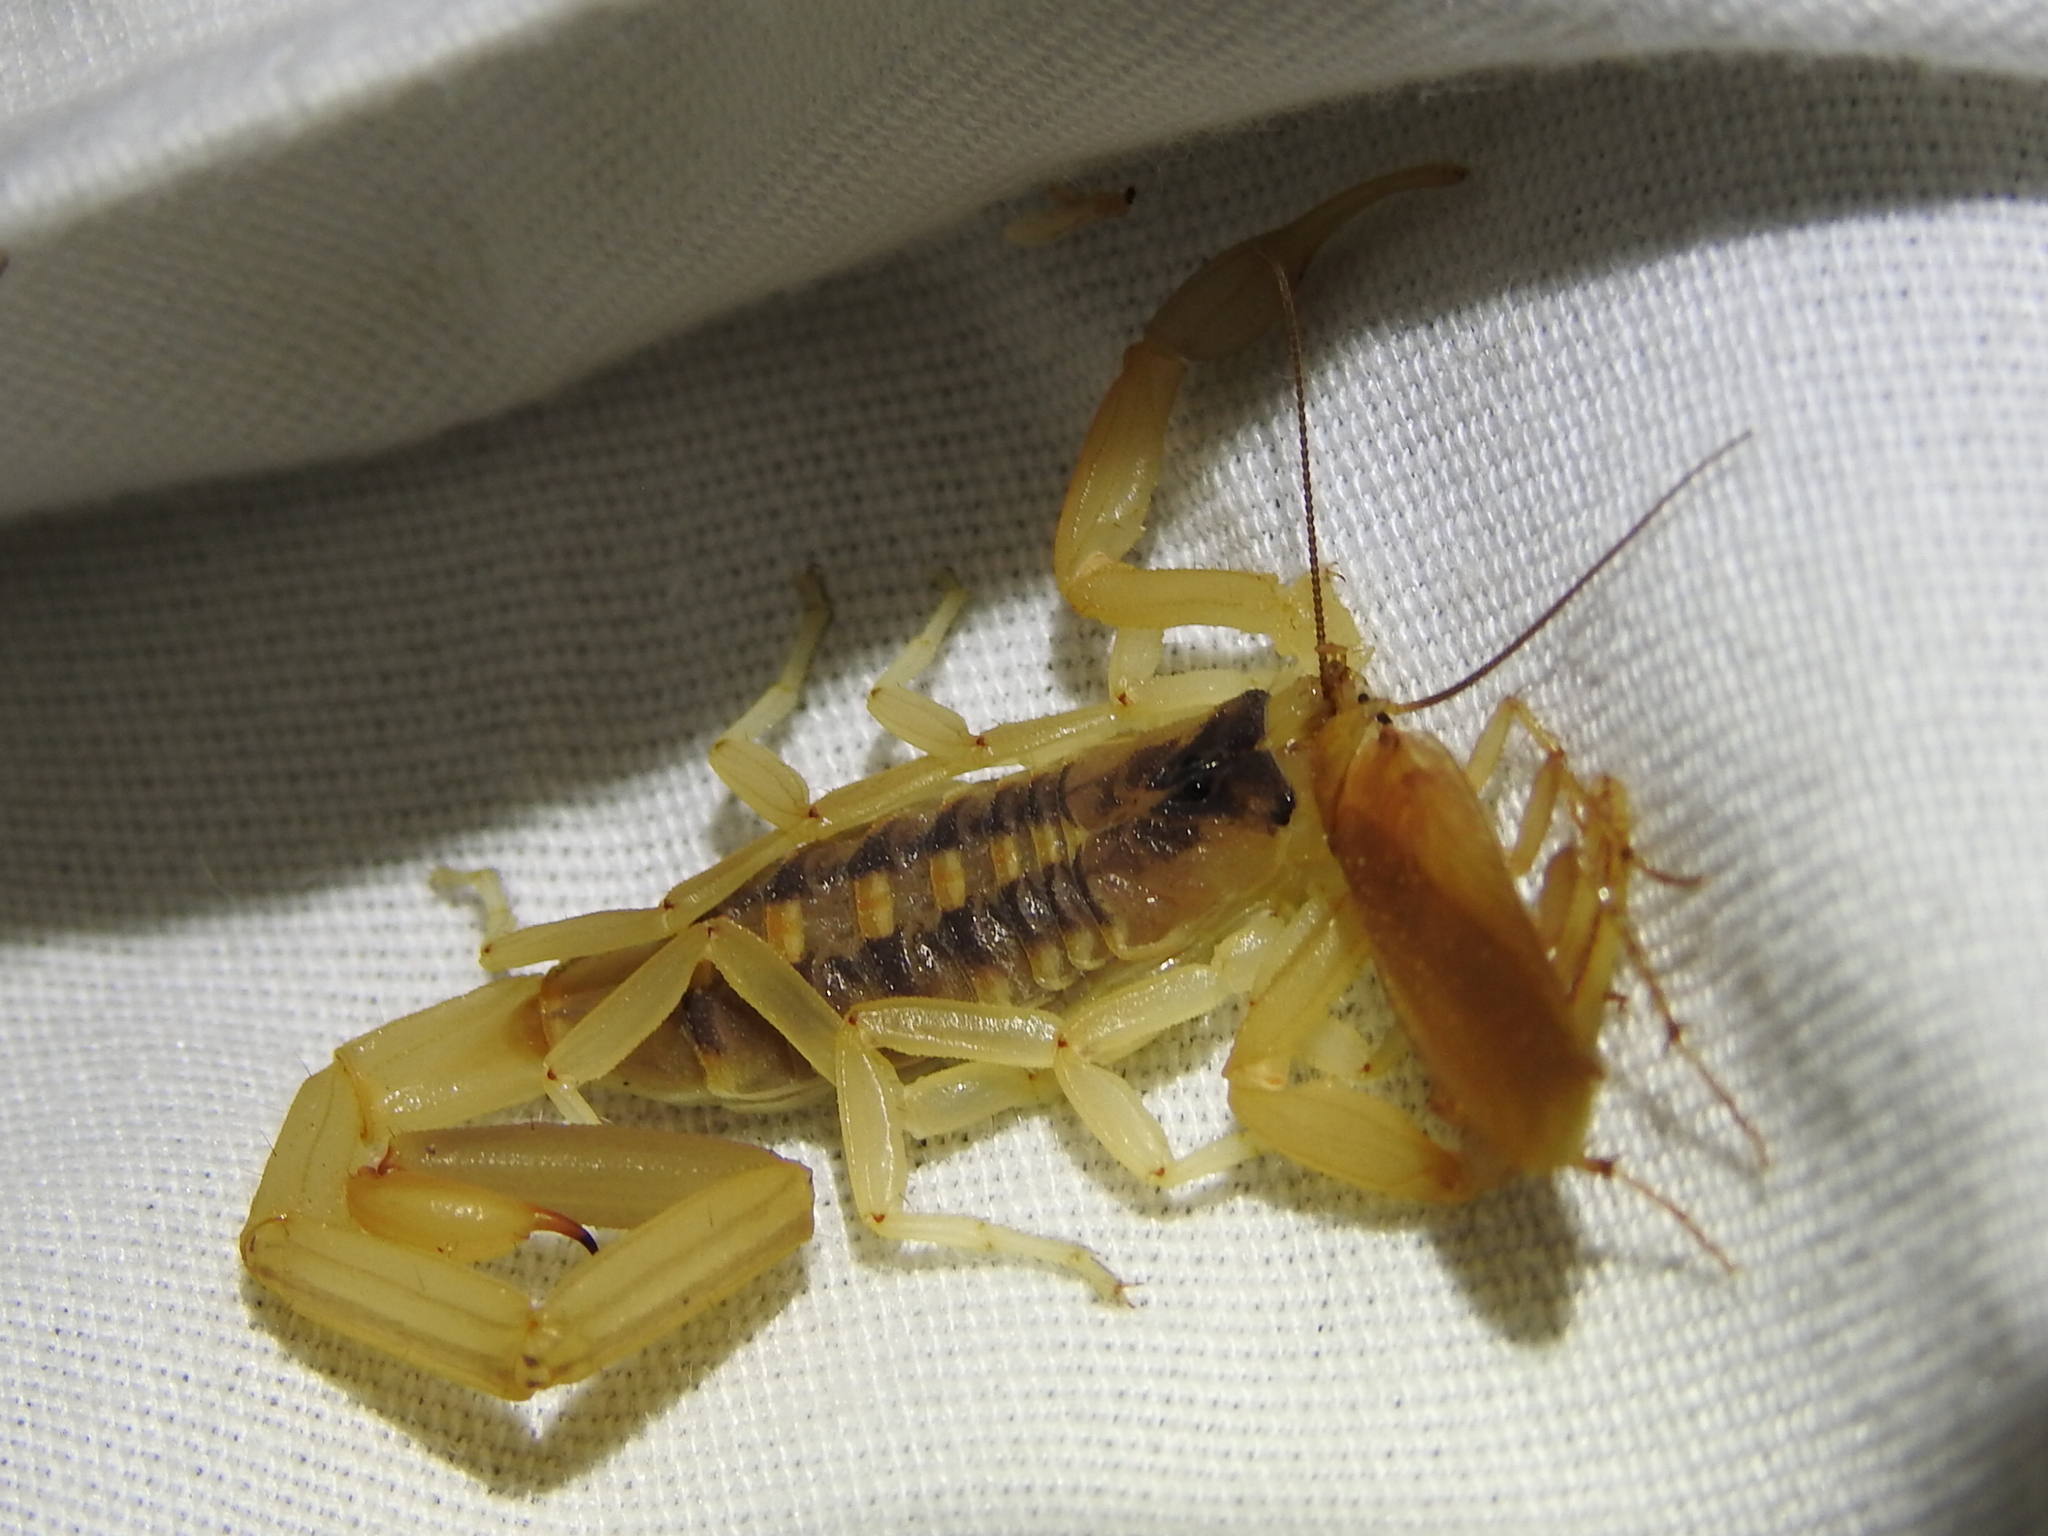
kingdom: Animalia
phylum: Arthropoda
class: Arachnida
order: Scorpiones
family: Buthidae
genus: Centruroides
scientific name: Centruroides vittatus
